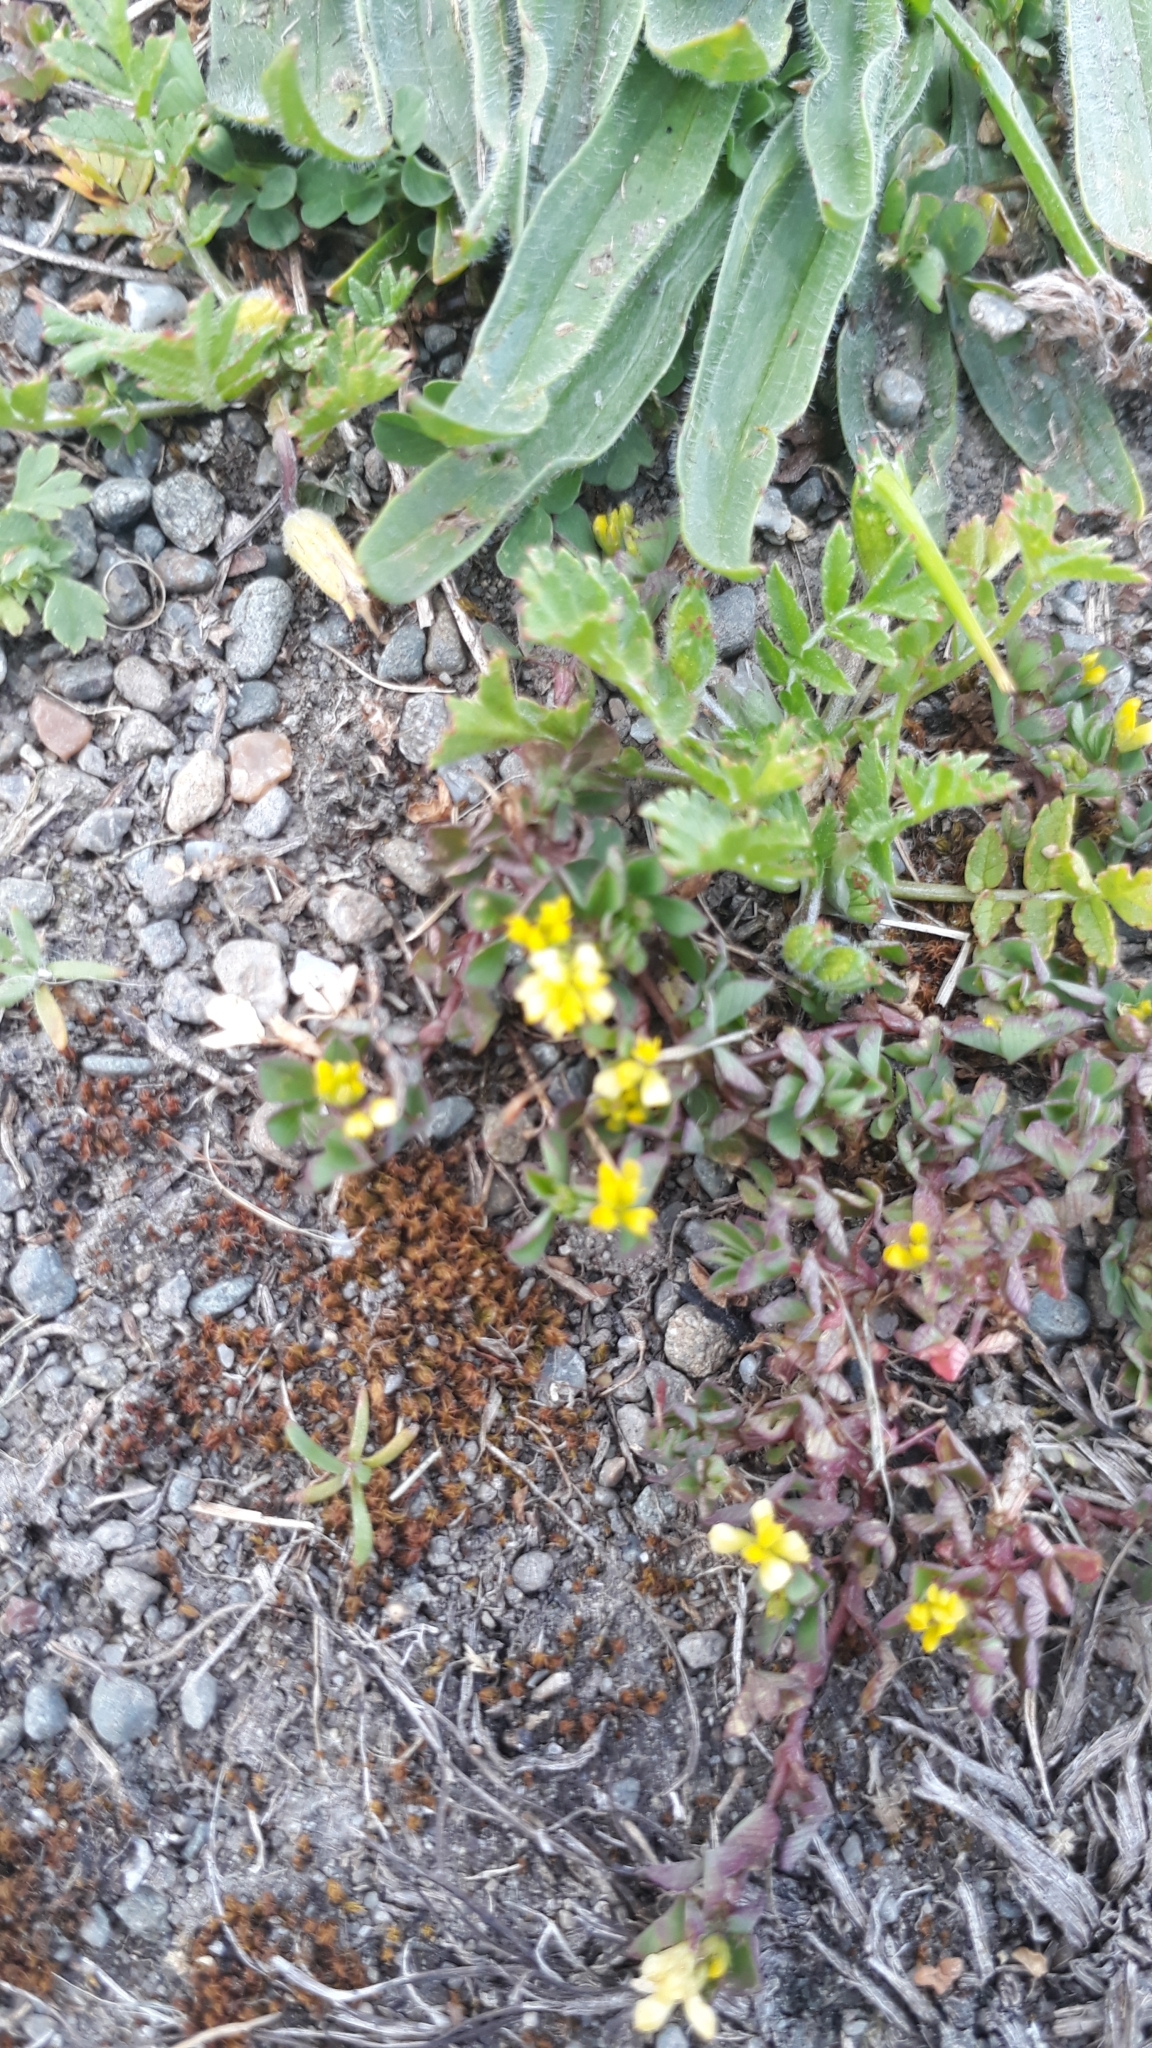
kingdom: Plantae
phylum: Tracheophyta
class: Magnoliopsida
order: Fabales
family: Fabaceae
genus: Trifolium
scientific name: Trifolium dubium
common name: Suckling clover
